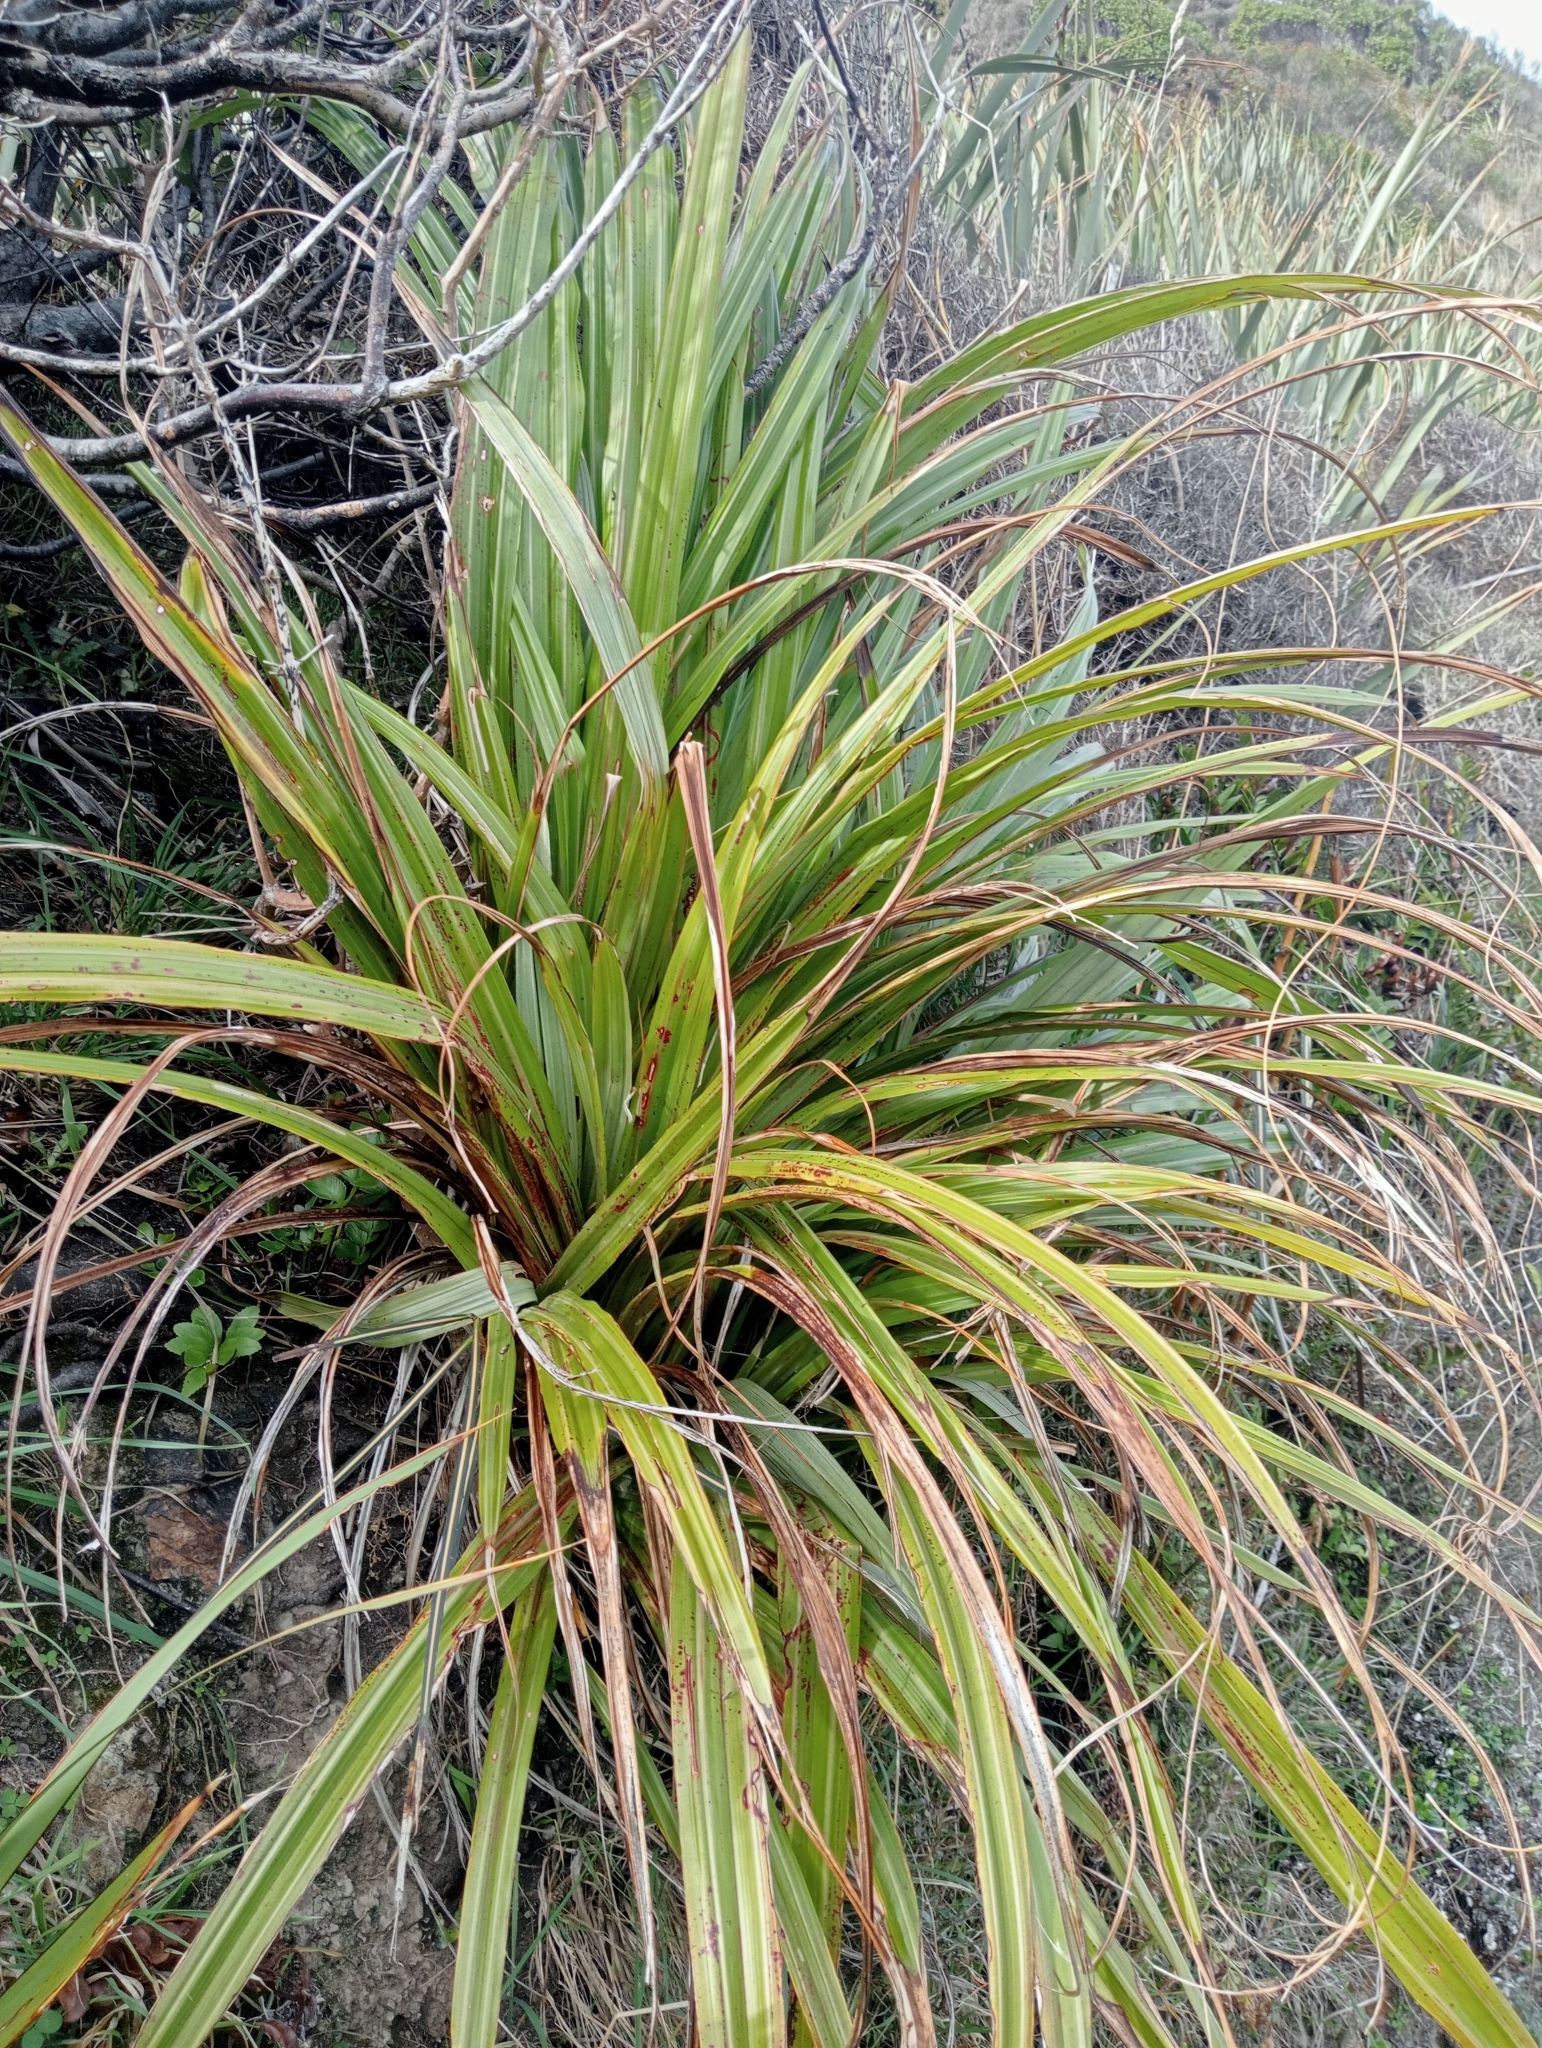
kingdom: Plantae
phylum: Tracheophyta
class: Liliopsida
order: Asparagales
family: Asteliaceae
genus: Astelia
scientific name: Astelia fragrans
